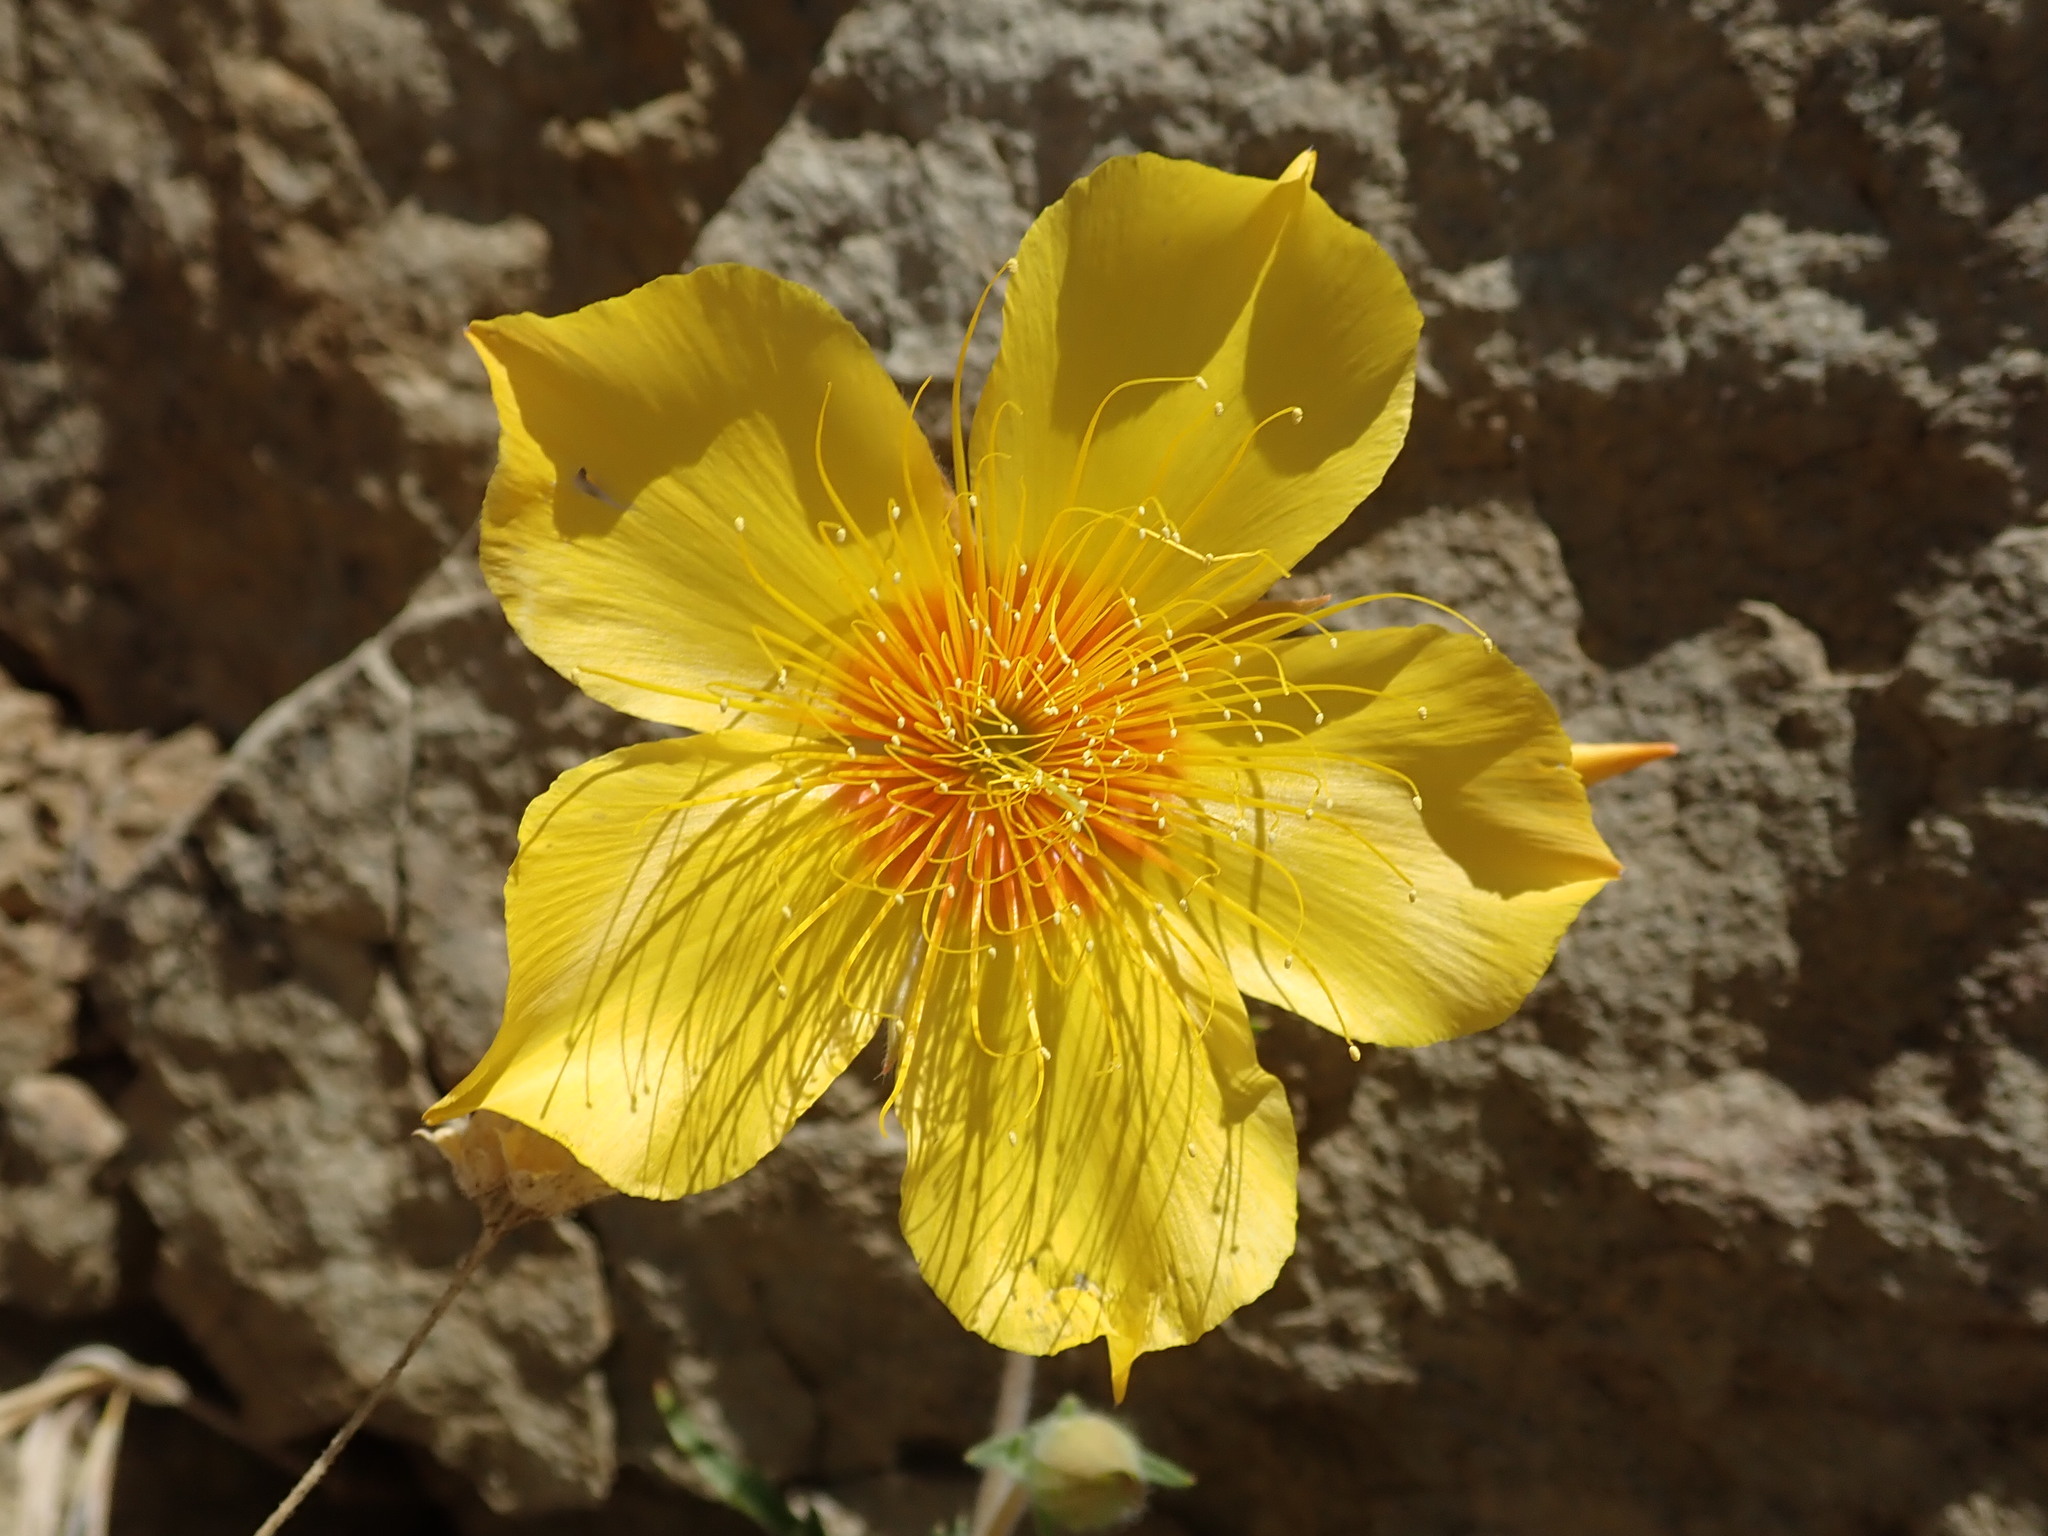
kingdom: Plantae
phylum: Tracheophyta
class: Magnoliopsida
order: Cornales
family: Loasaceae
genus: Mentzelia
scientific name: Mentzelia lindleyi
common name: Golden bartonia
